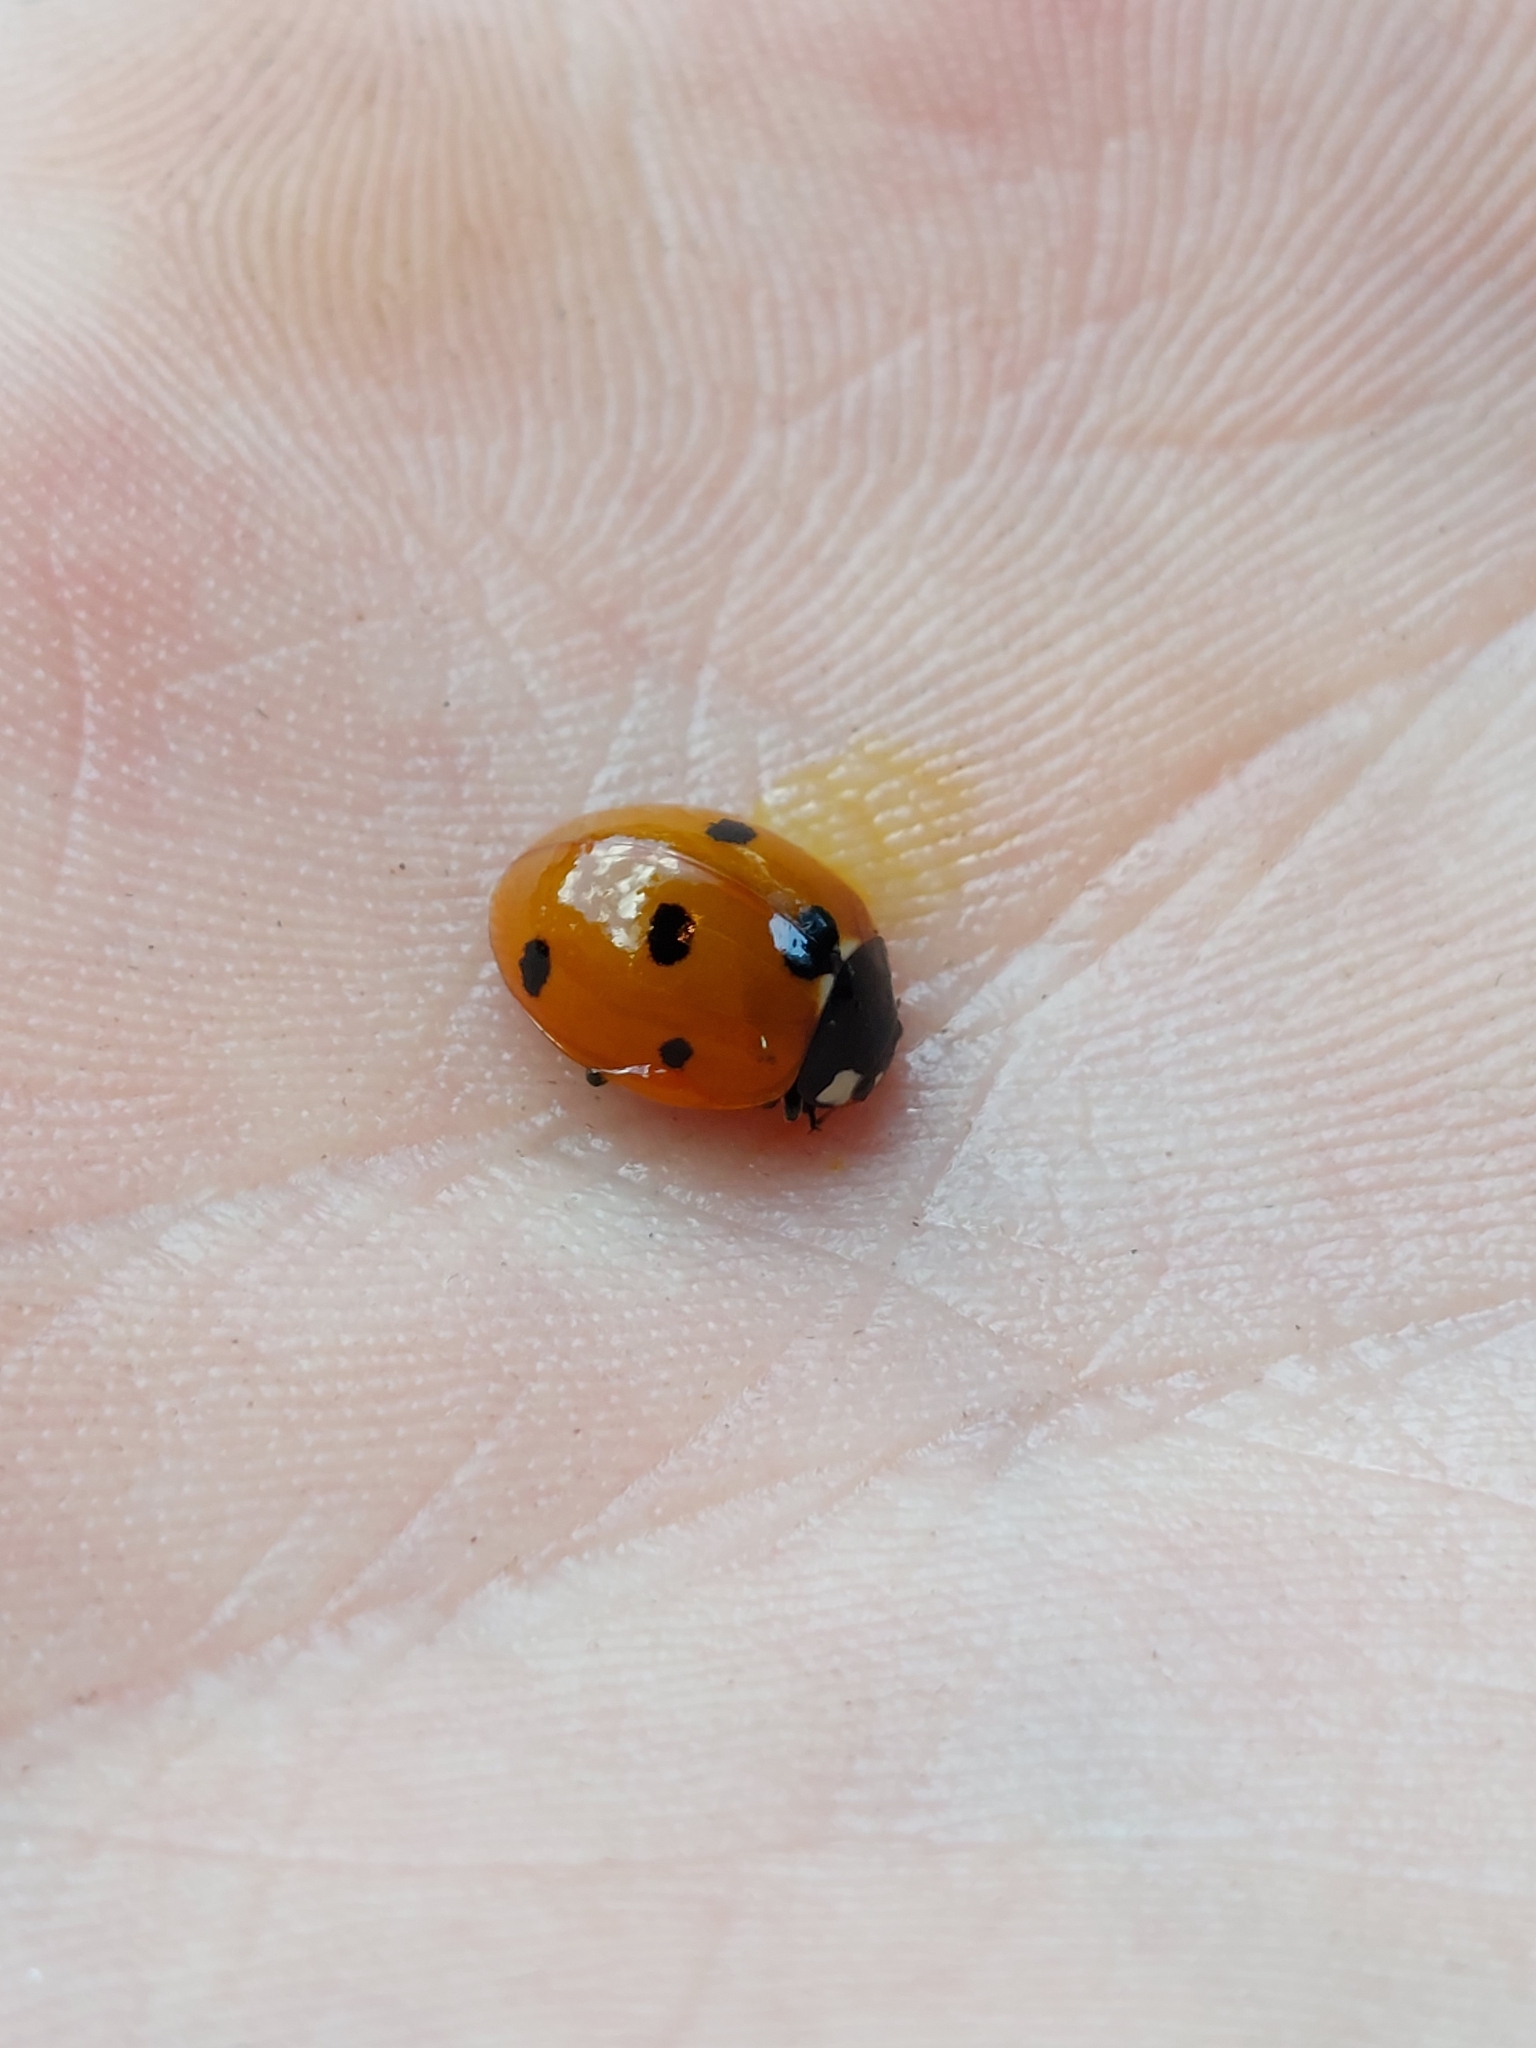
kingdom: Animalia
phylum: Arthropoda
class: Insecta
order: Coleoptera
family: Coccinellidae
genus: Coccinella
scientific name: Coccinella septempunctata
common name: Sevenspotted lady beetle
